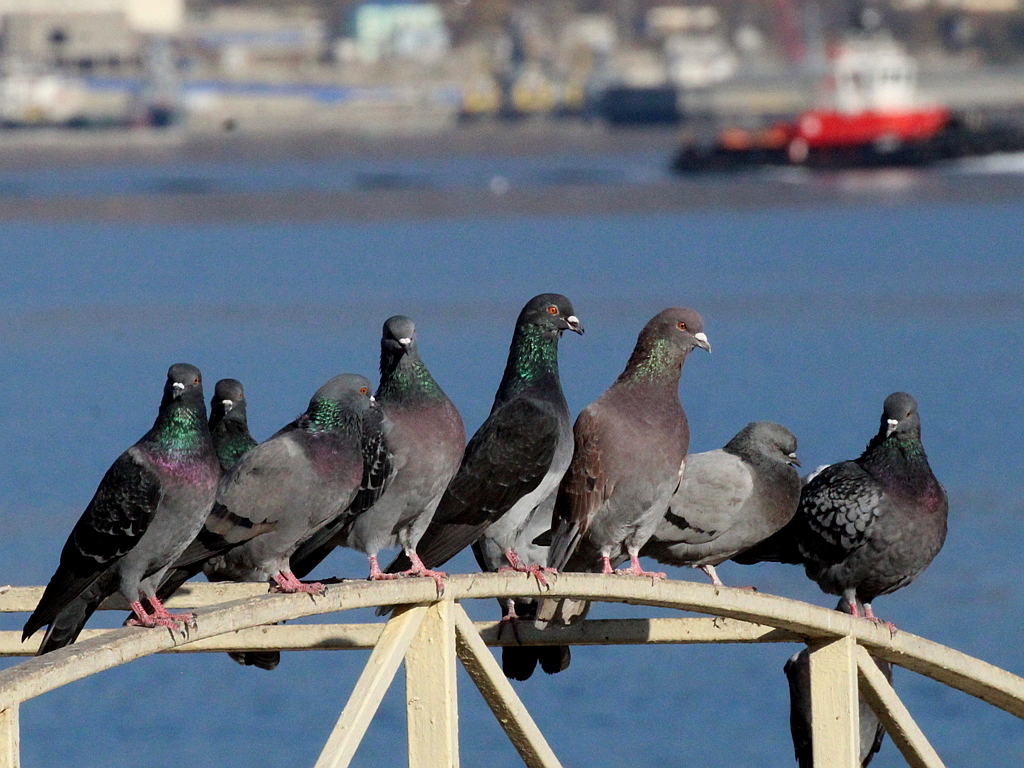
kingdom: Animalia
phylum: Chordata
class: Aves
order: Columbiformes
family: Columbidae
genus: Columba
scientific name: Columba livia
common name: Rock pigeon
